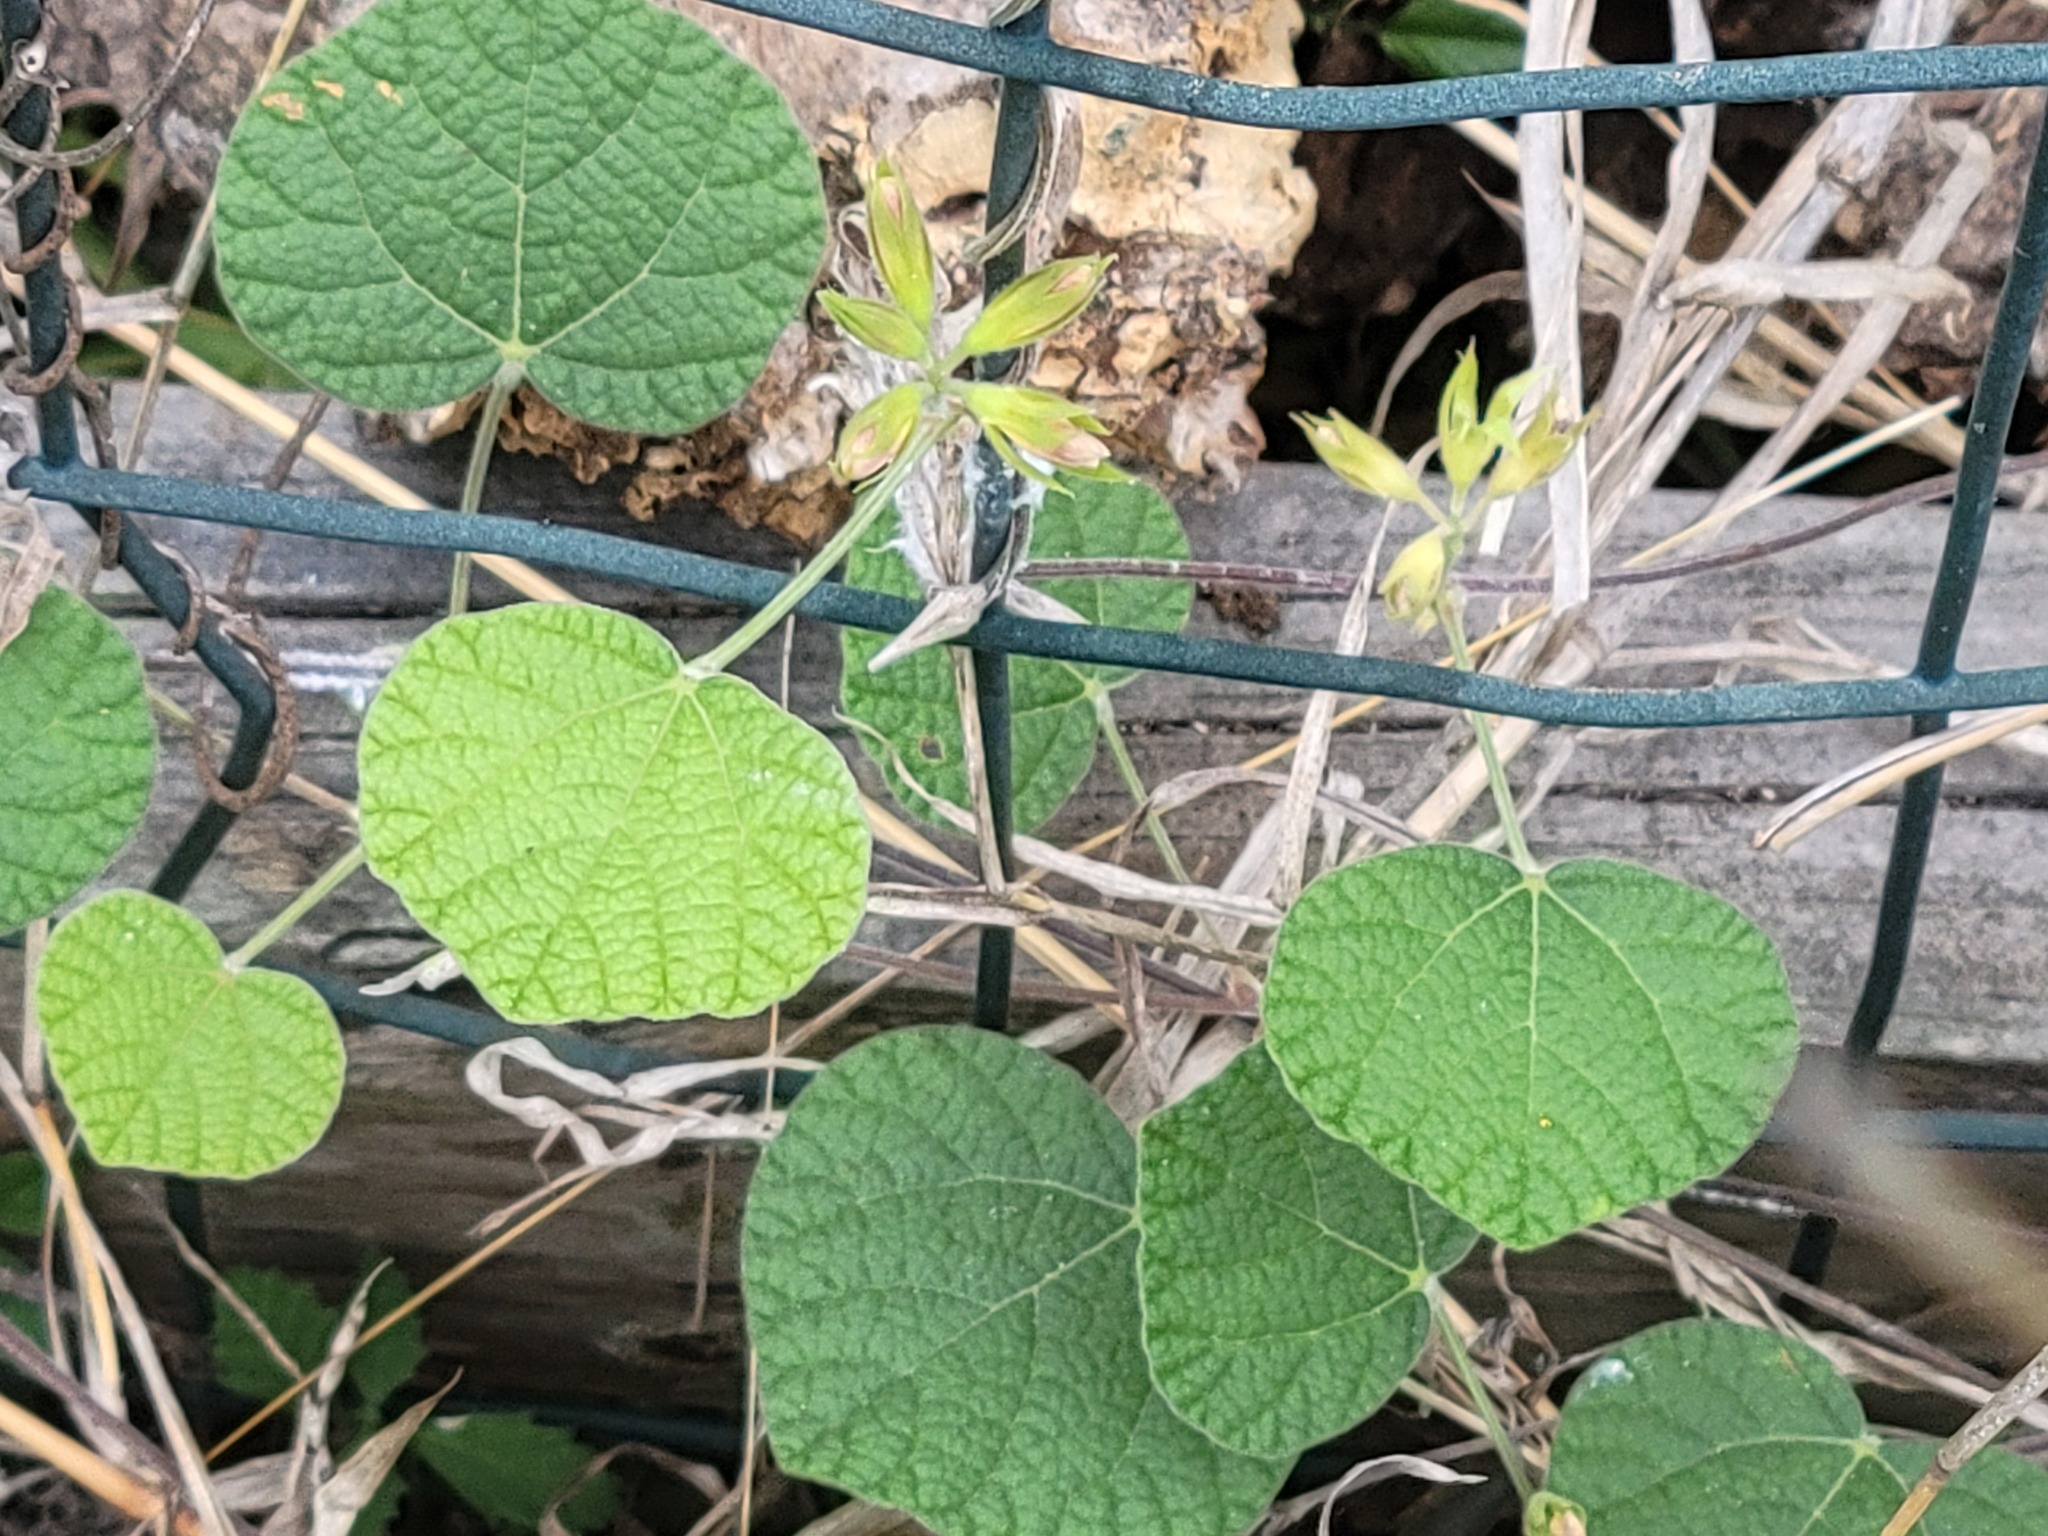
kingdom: Plantae
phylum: Tracheophyta
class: Magnoliopsida
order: Fabales
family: Fabaceae
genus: Rhynchosia
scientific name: Rhynchosia americana
